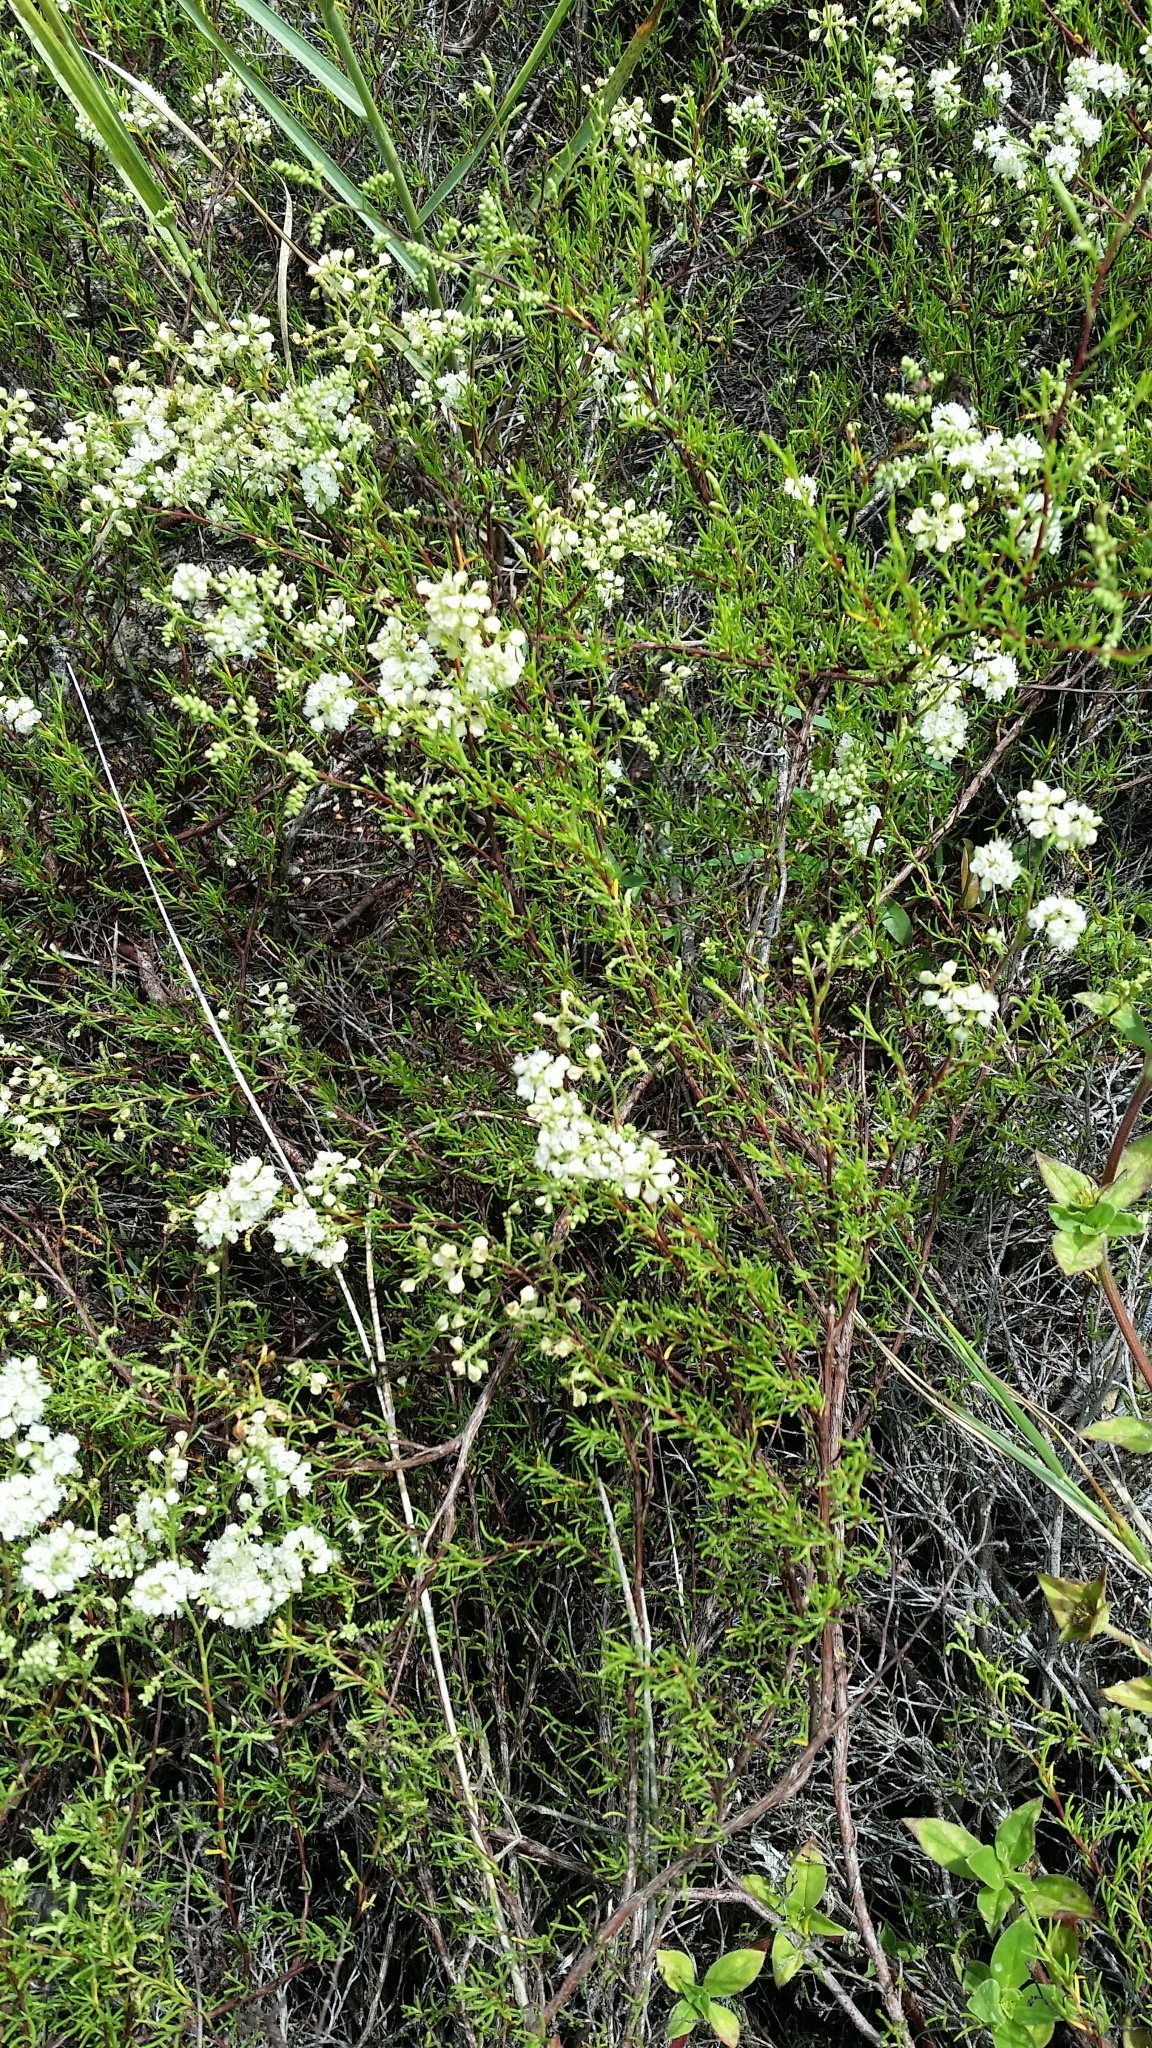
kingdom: Plantae
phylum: Tracheophyta
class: Magnoliopsida
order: Caryophyllales
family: Polygonaceae
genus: Polygonella
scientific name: Polygonella myriophylla
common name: Sandlace
